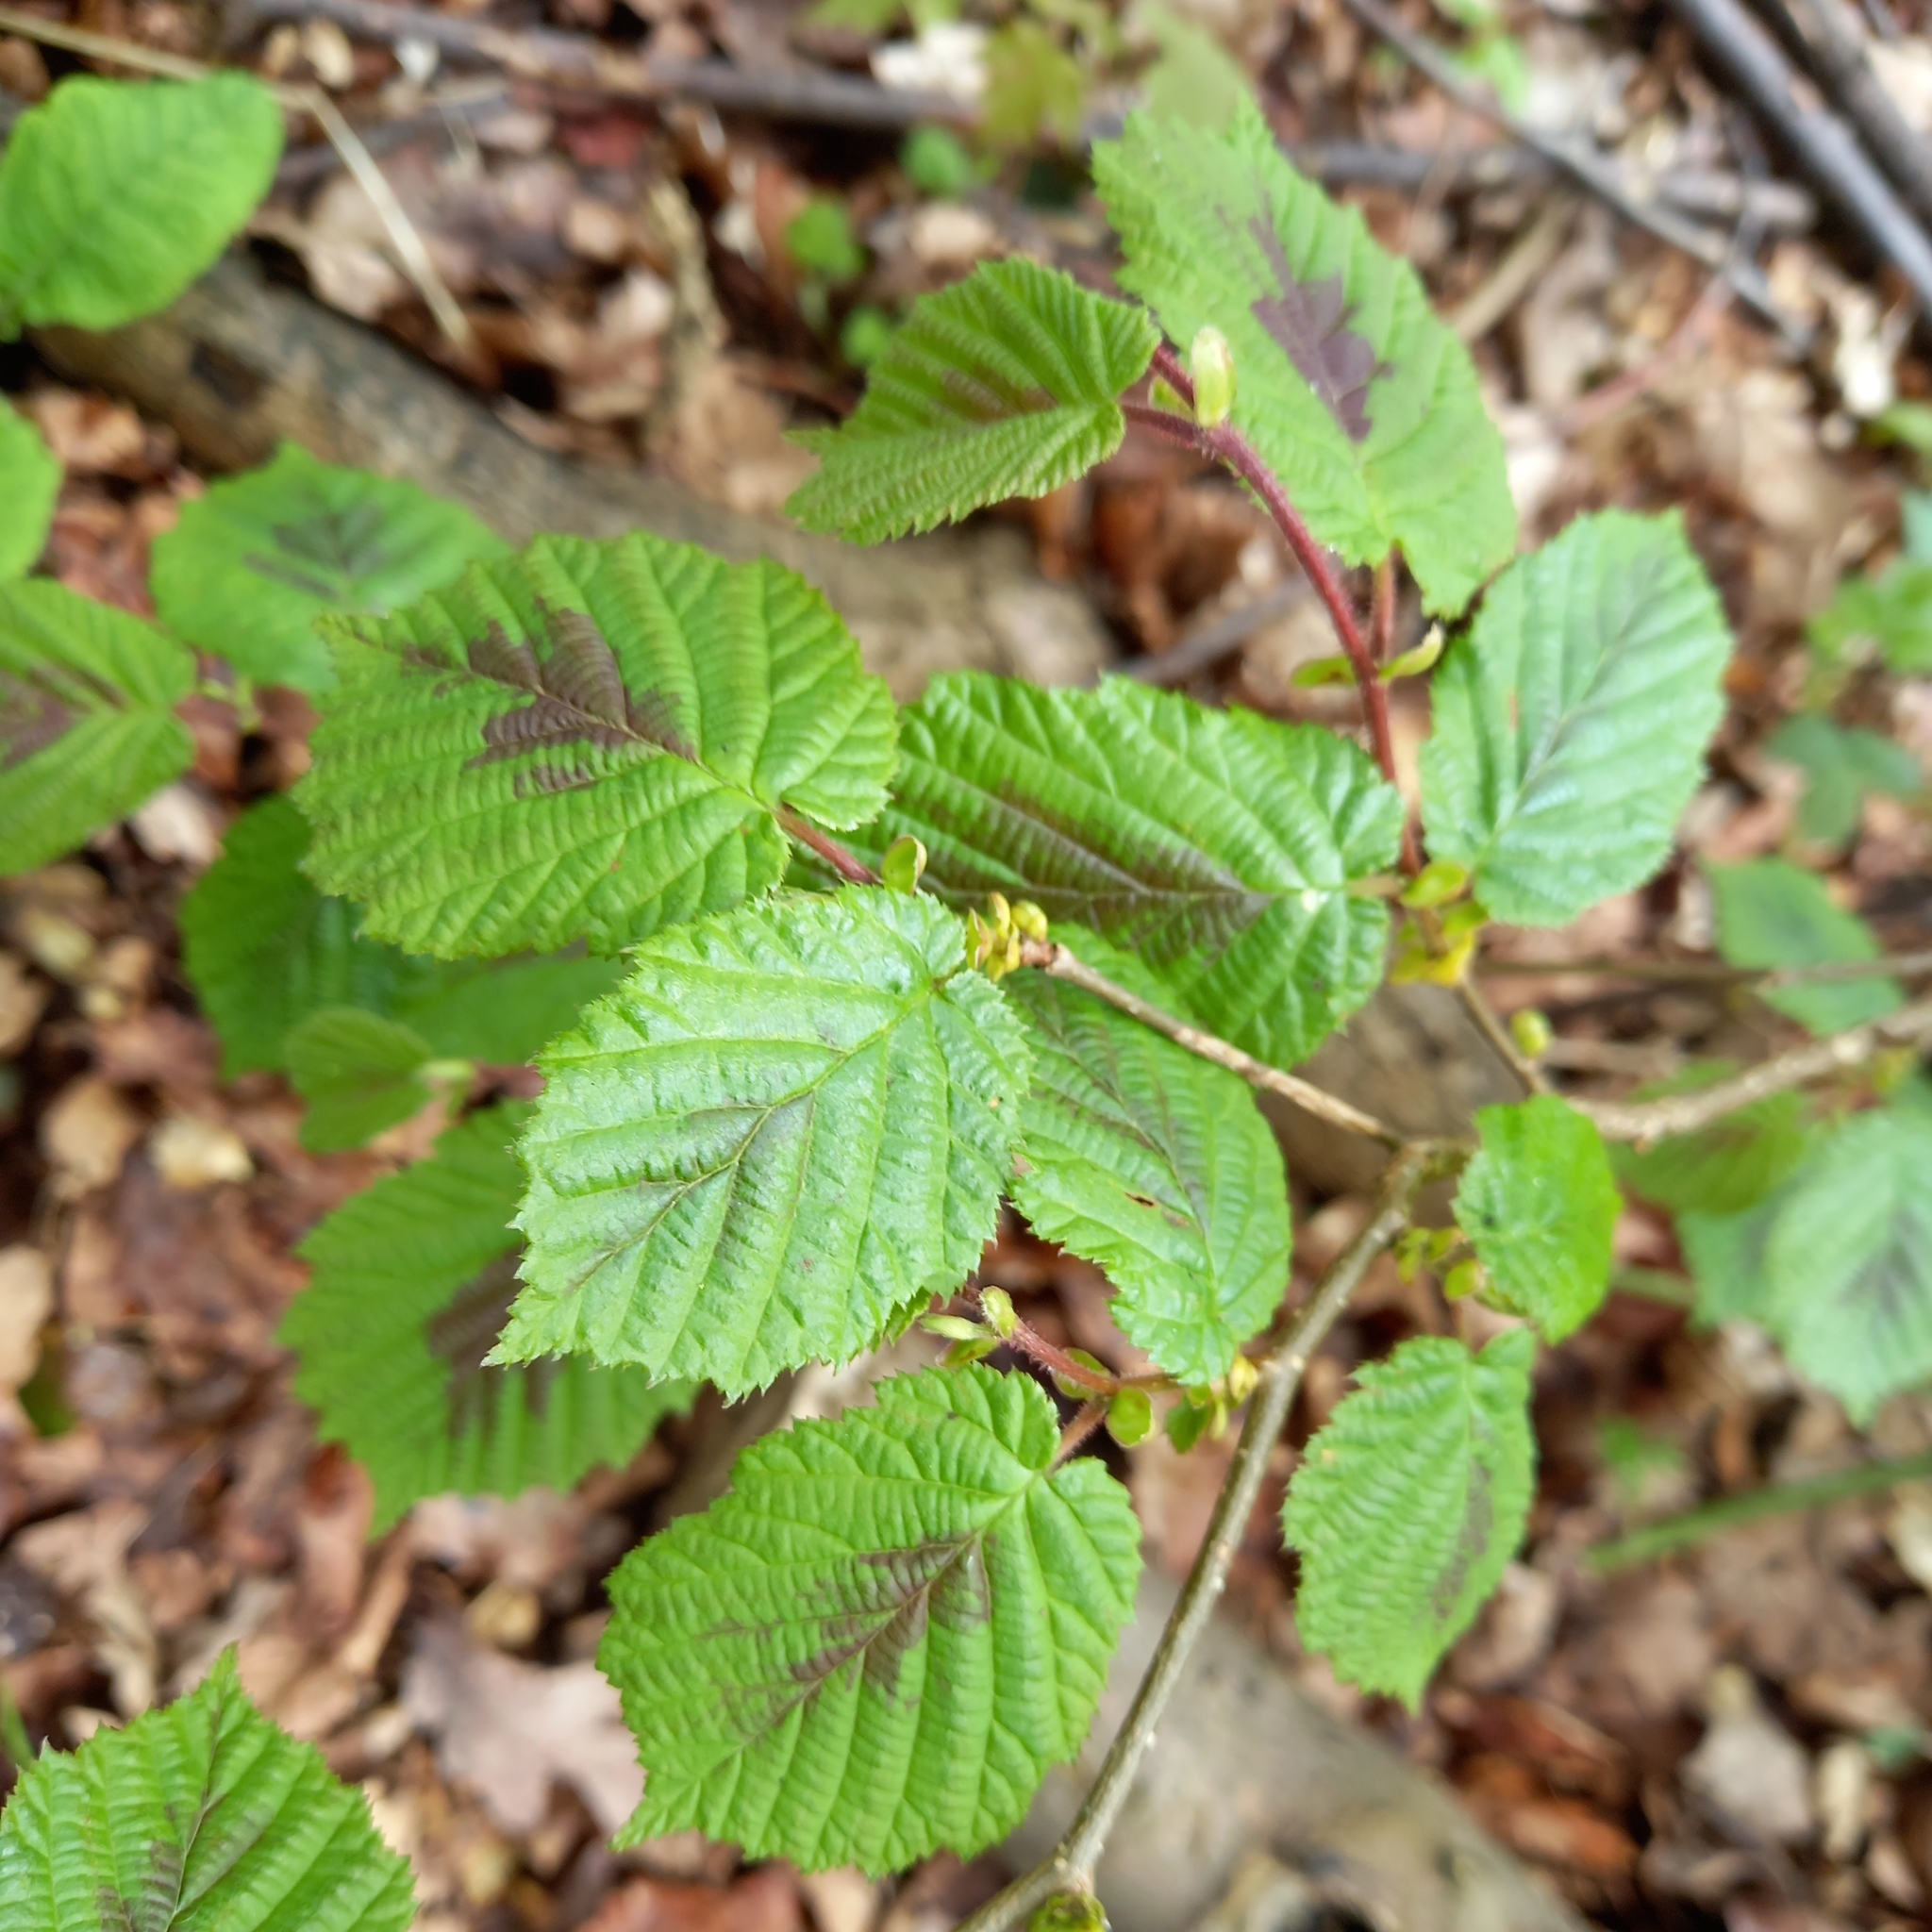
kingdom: Plantae
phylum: Tracheophyta
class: Magnoliopsida
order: Fagales
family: Betulaceae
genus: Corylus
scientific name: Corylus avellana
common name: European hazel
